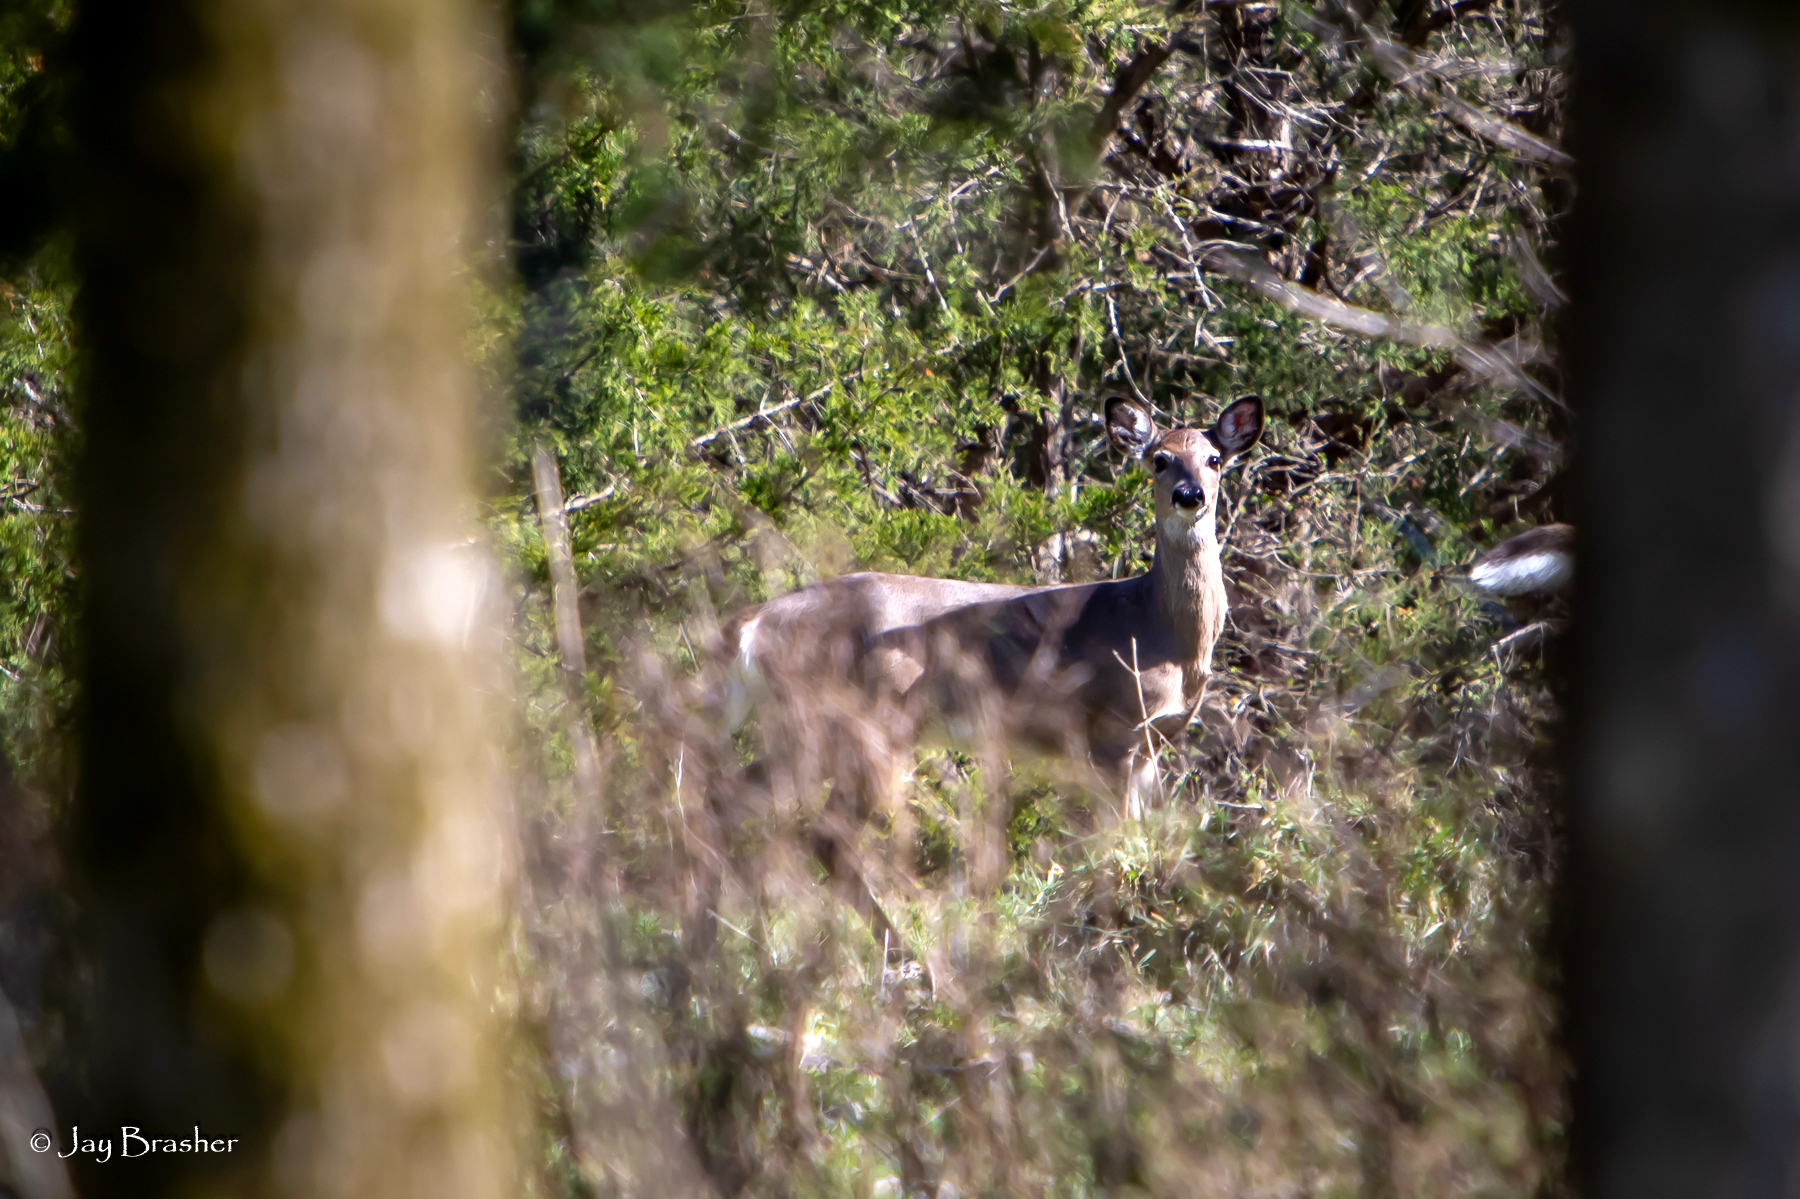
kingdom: Animalia
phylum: Chordata
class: Mammalia
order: Artiodactyla
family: Cervidae
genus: Odocoileus
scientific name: Odocoileus virginianus
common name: White-tailed deer
